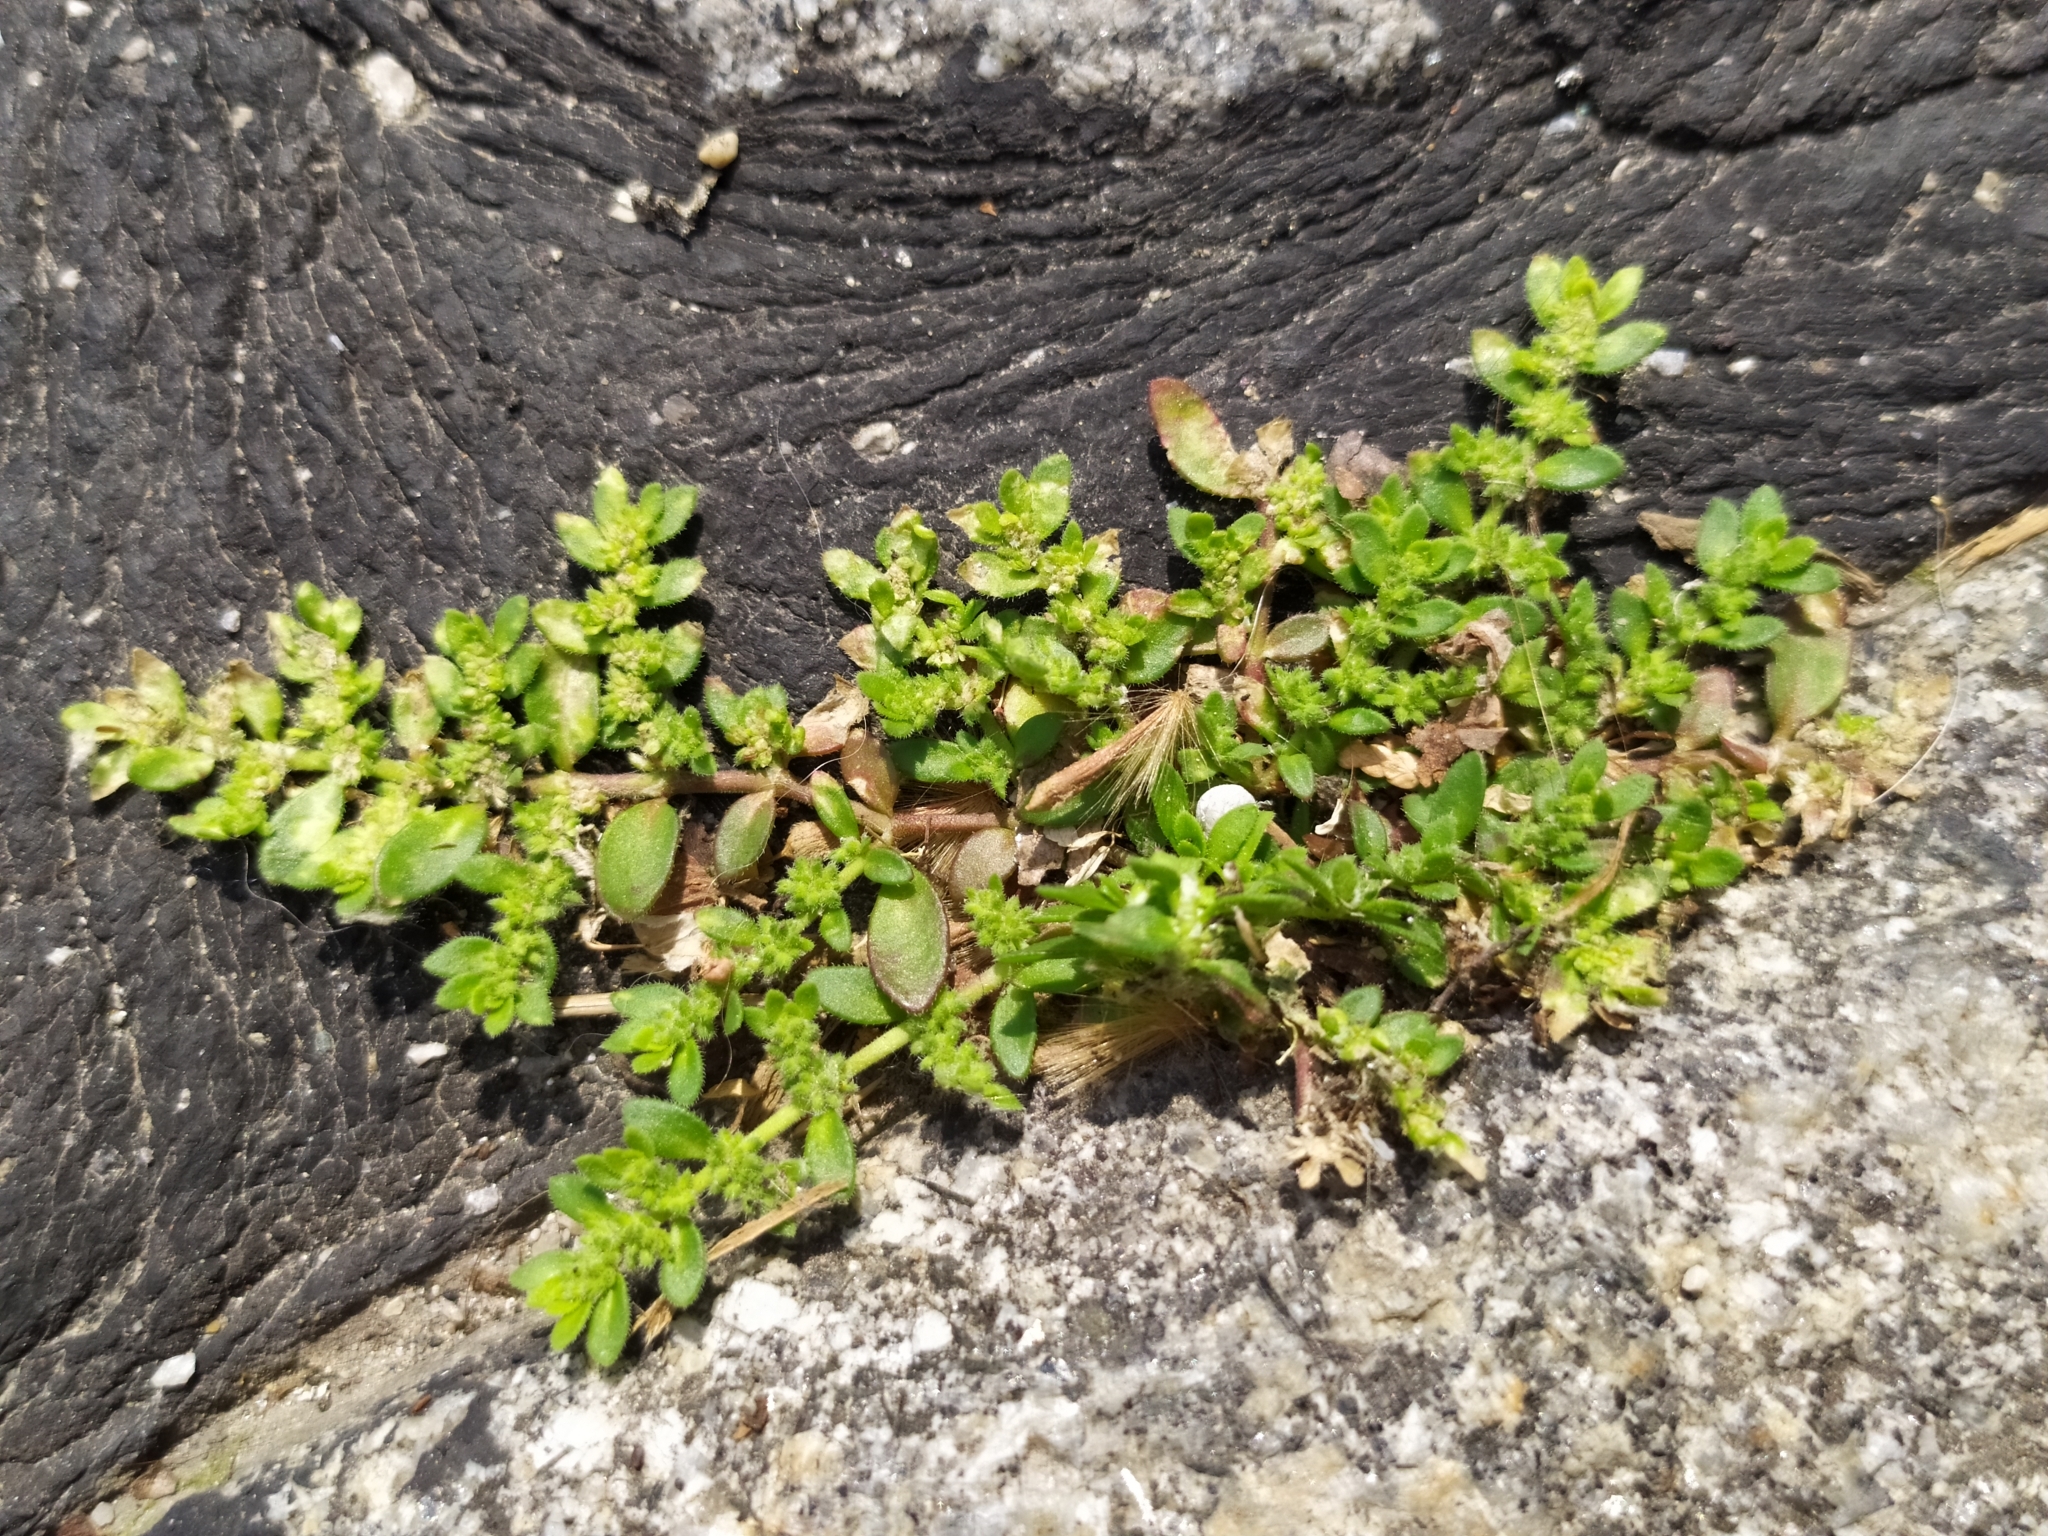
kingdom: Plantae
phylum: Tracheophyta
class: Magnoliopsida
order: Caryophyllales
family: Caryophyllaceae
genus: Herniaria
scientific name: Herniaria hirsuta
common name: Hairy rupturewort
